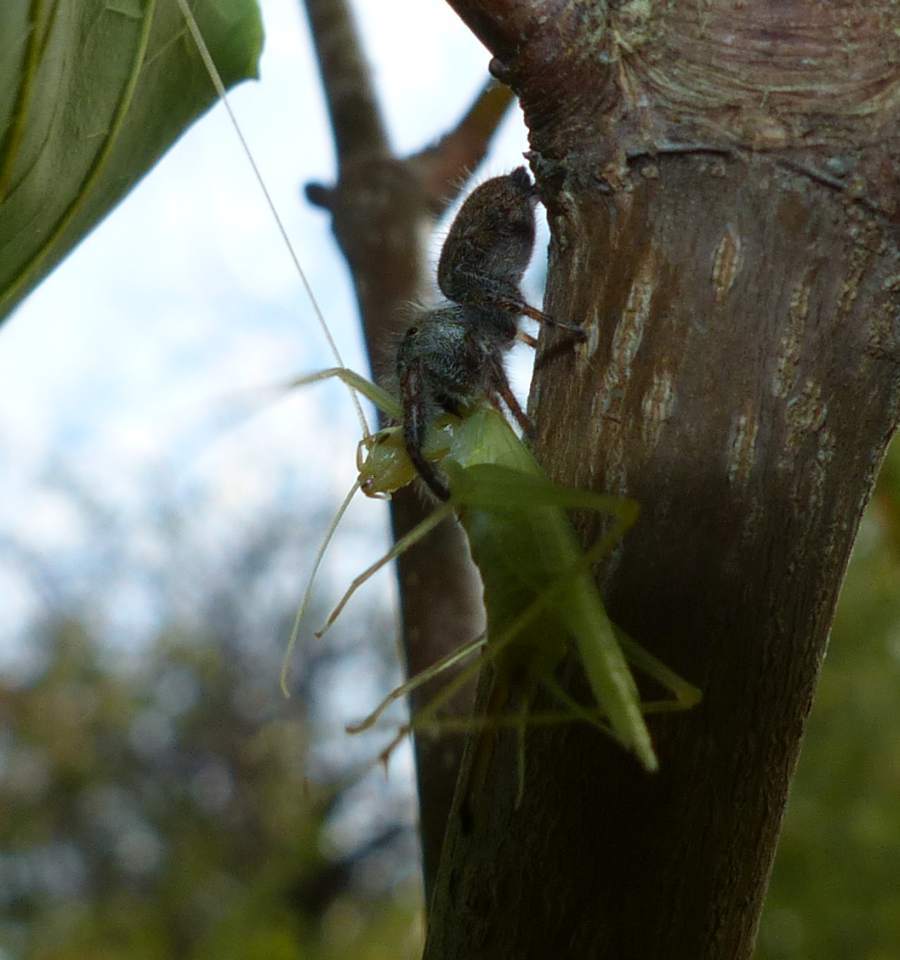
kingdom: Animalia
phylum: Arthropoda
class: Arachnida
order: Araneae
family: Salticidae
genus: Phidippus
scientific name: Phidippus princeps
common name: Grayish jumping spider
